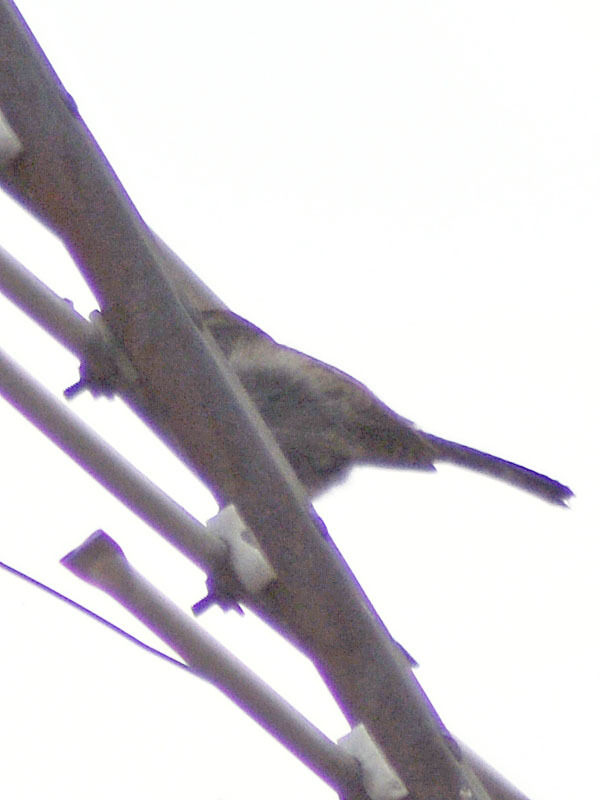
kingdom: Animalia
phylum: Chordata
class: Aves
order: Passeriformes
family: Troglodytidae
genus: Thryomanes
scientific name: Thryomanes bewickii
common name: Bewick's wren
